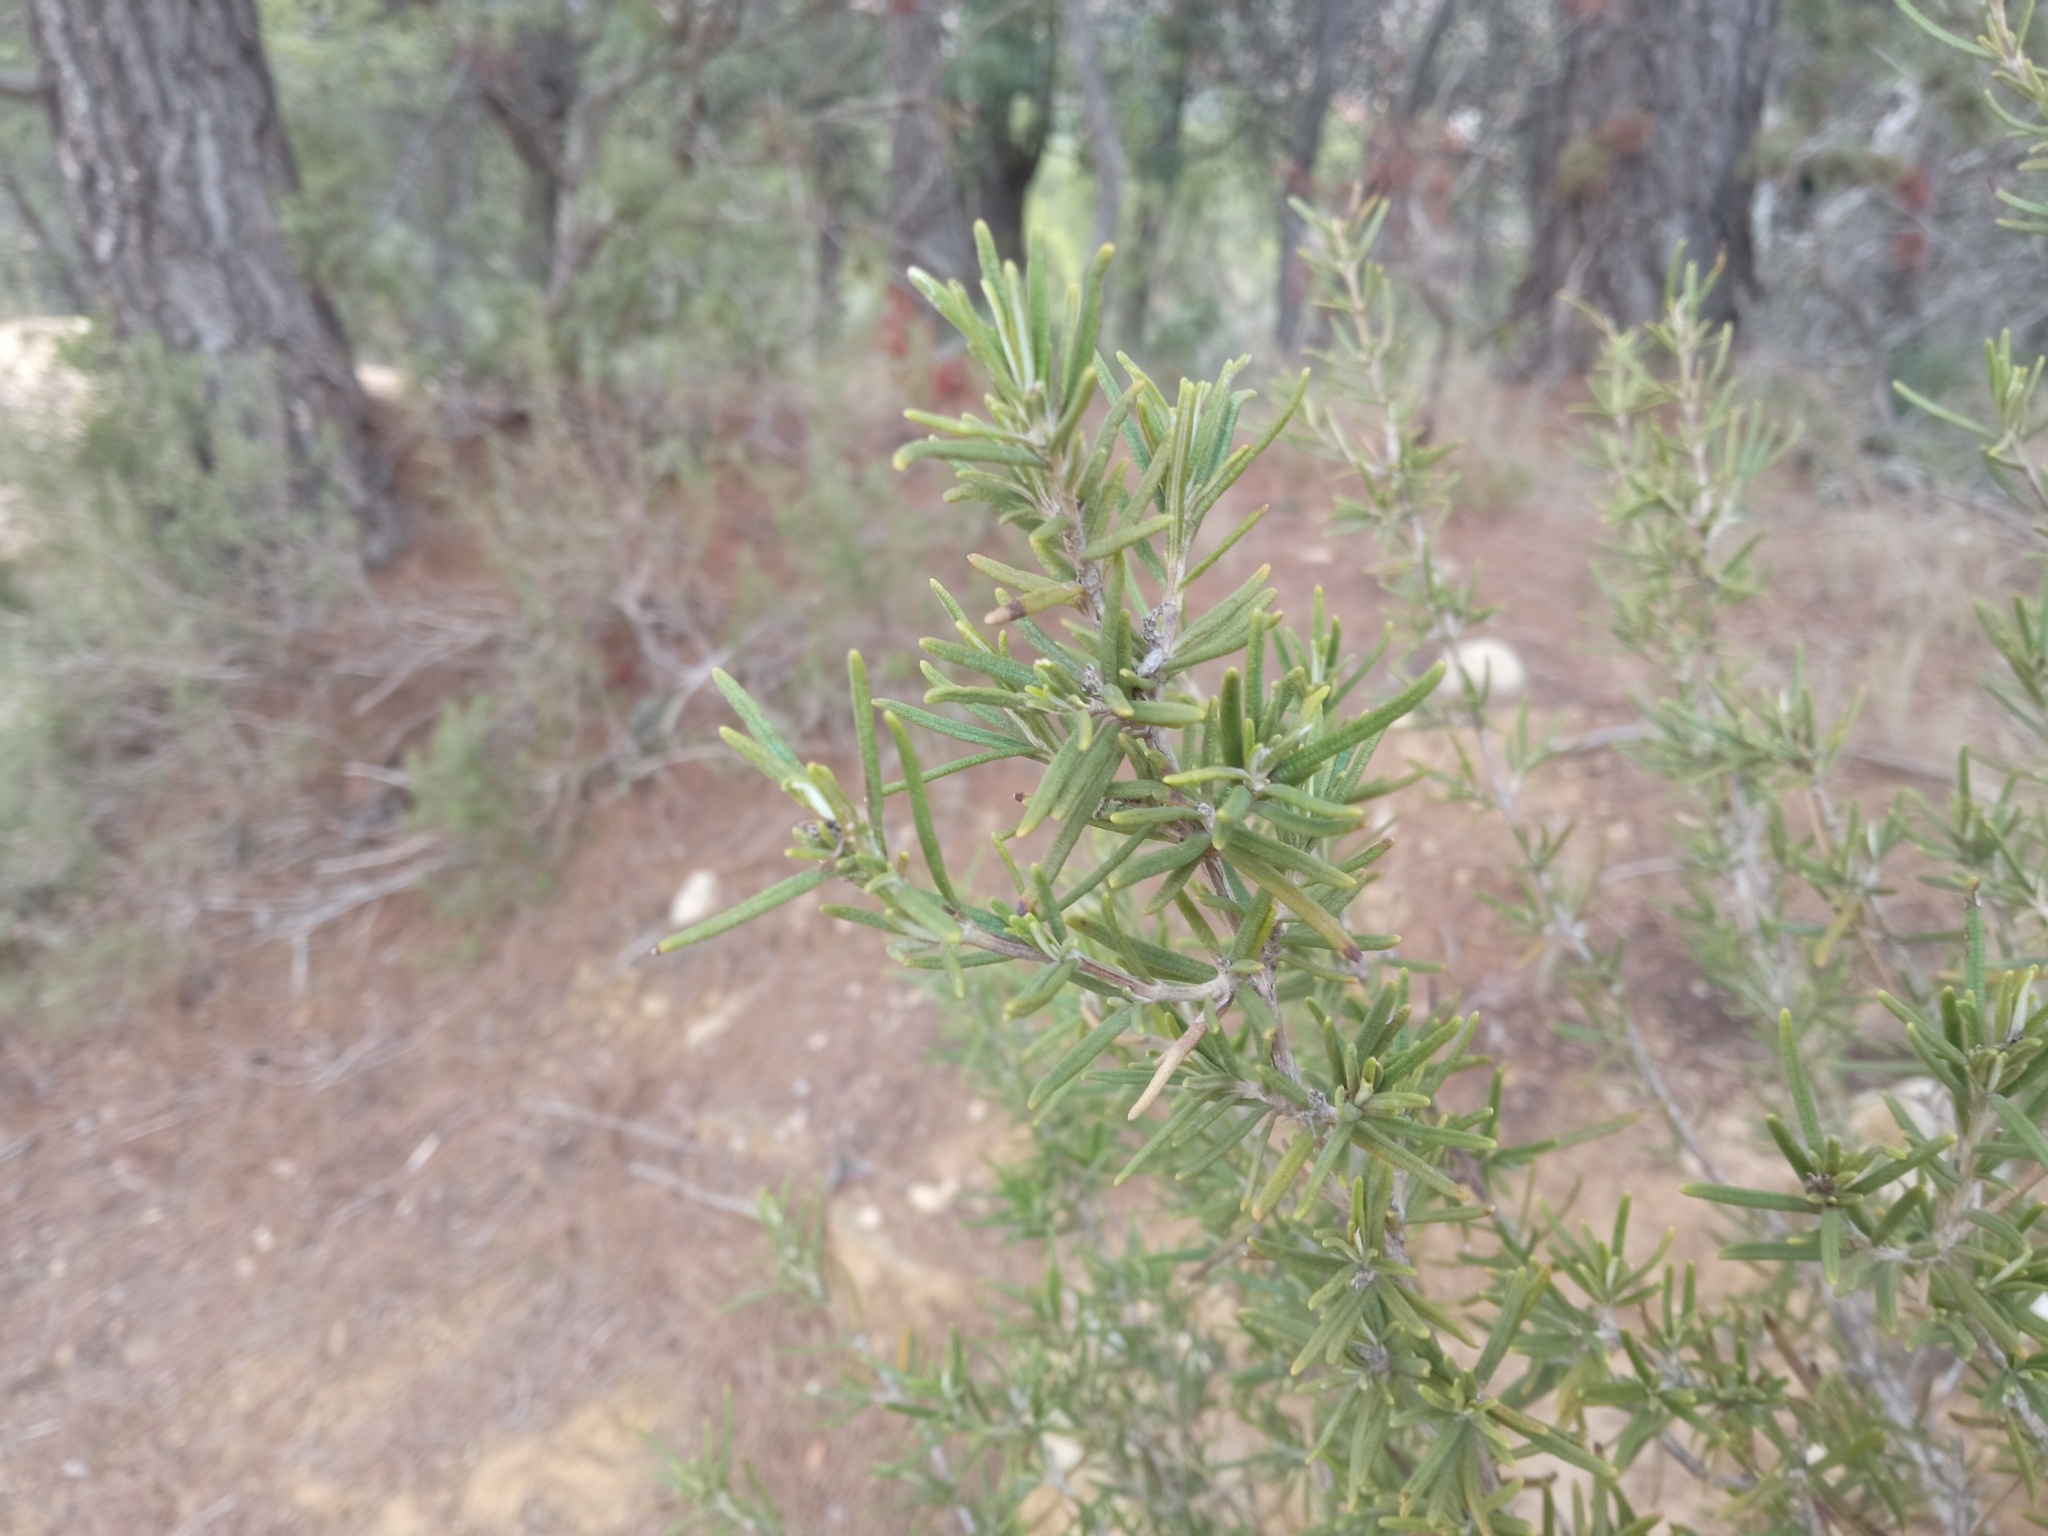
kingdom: Plantae
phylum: Tracheophyta
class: Magnoliopsida
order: Lamiales
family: Lamiaceae
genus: Salvia
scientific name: Salvia rosmarinus
